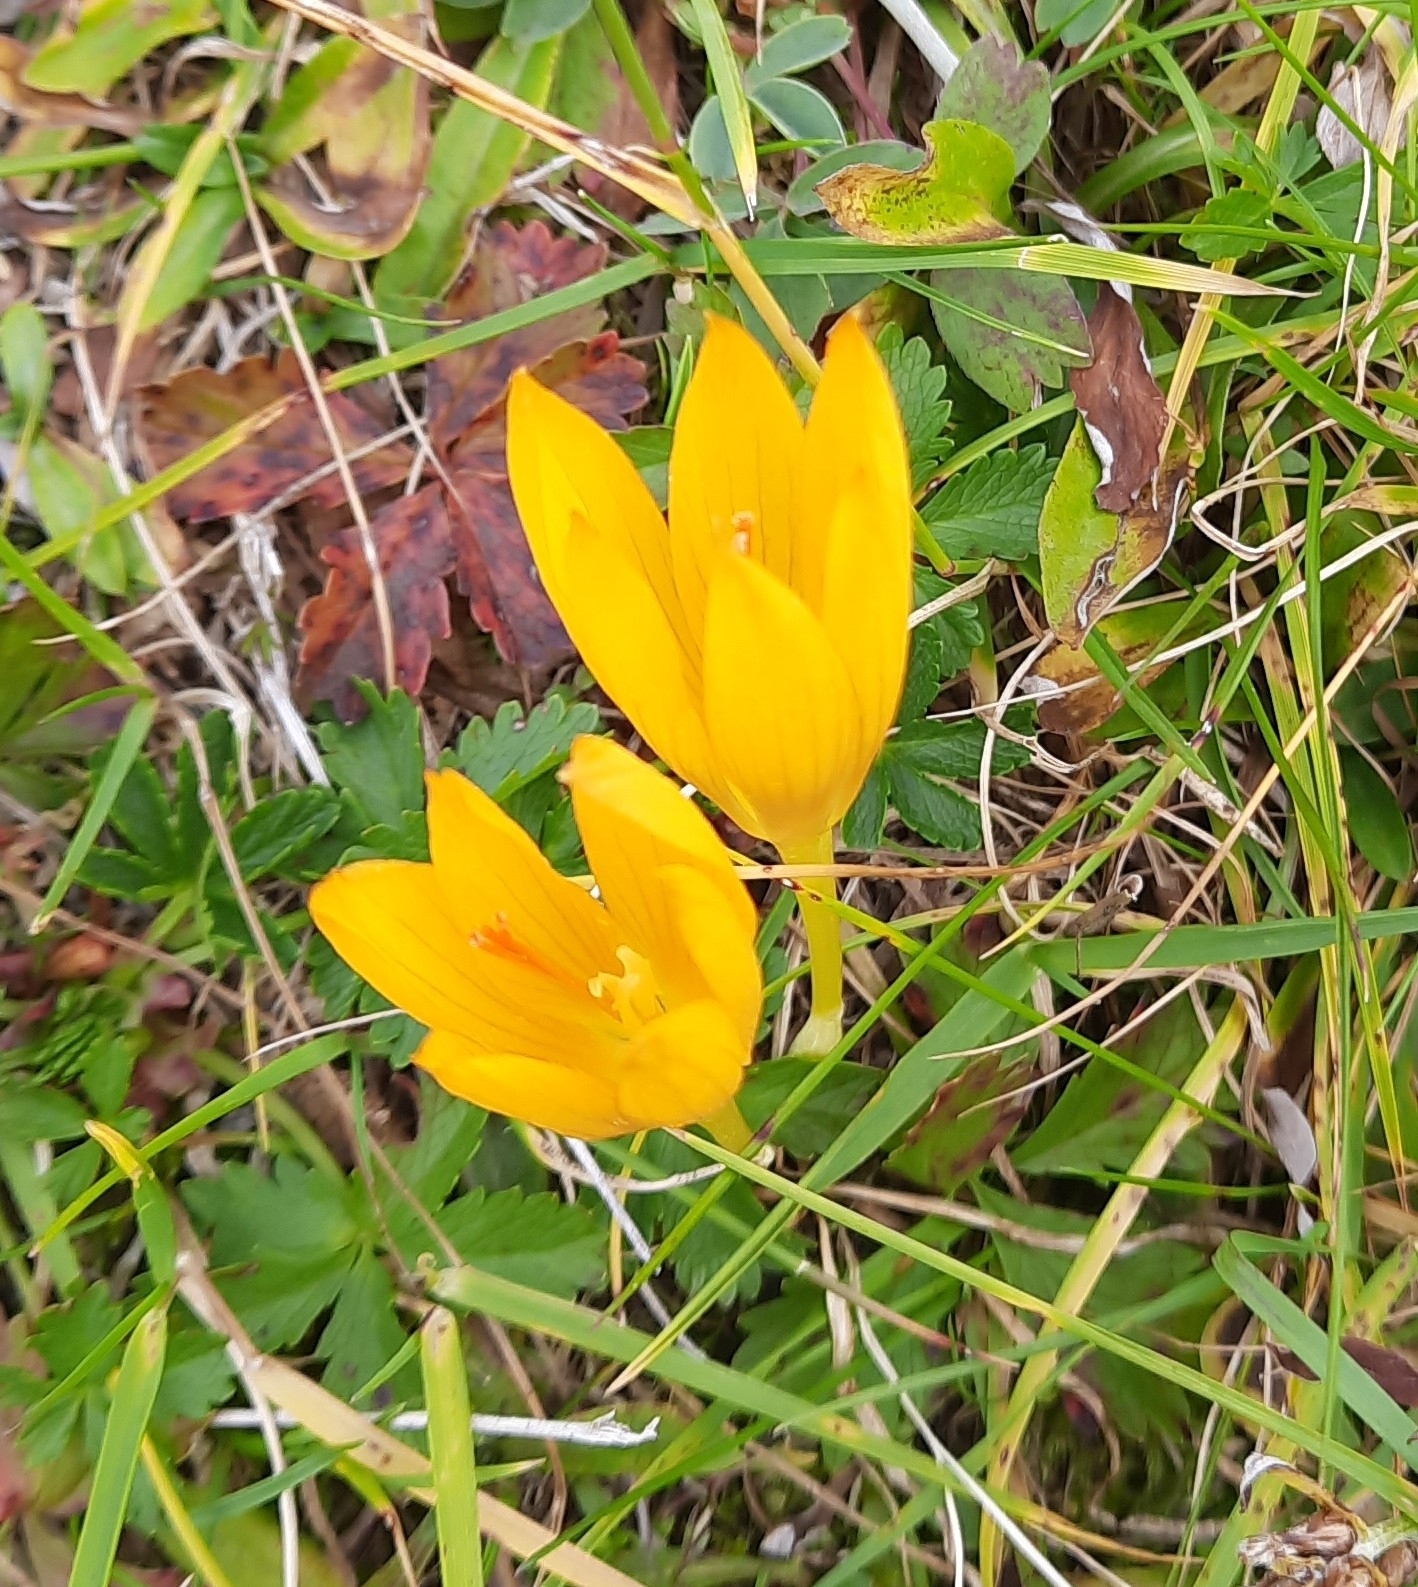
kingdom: Plantae
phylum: Tracheophyta
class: Liliopsida
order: Asparagales
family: Iridaceae
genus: Crocus
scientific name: Crocus scharojanii
